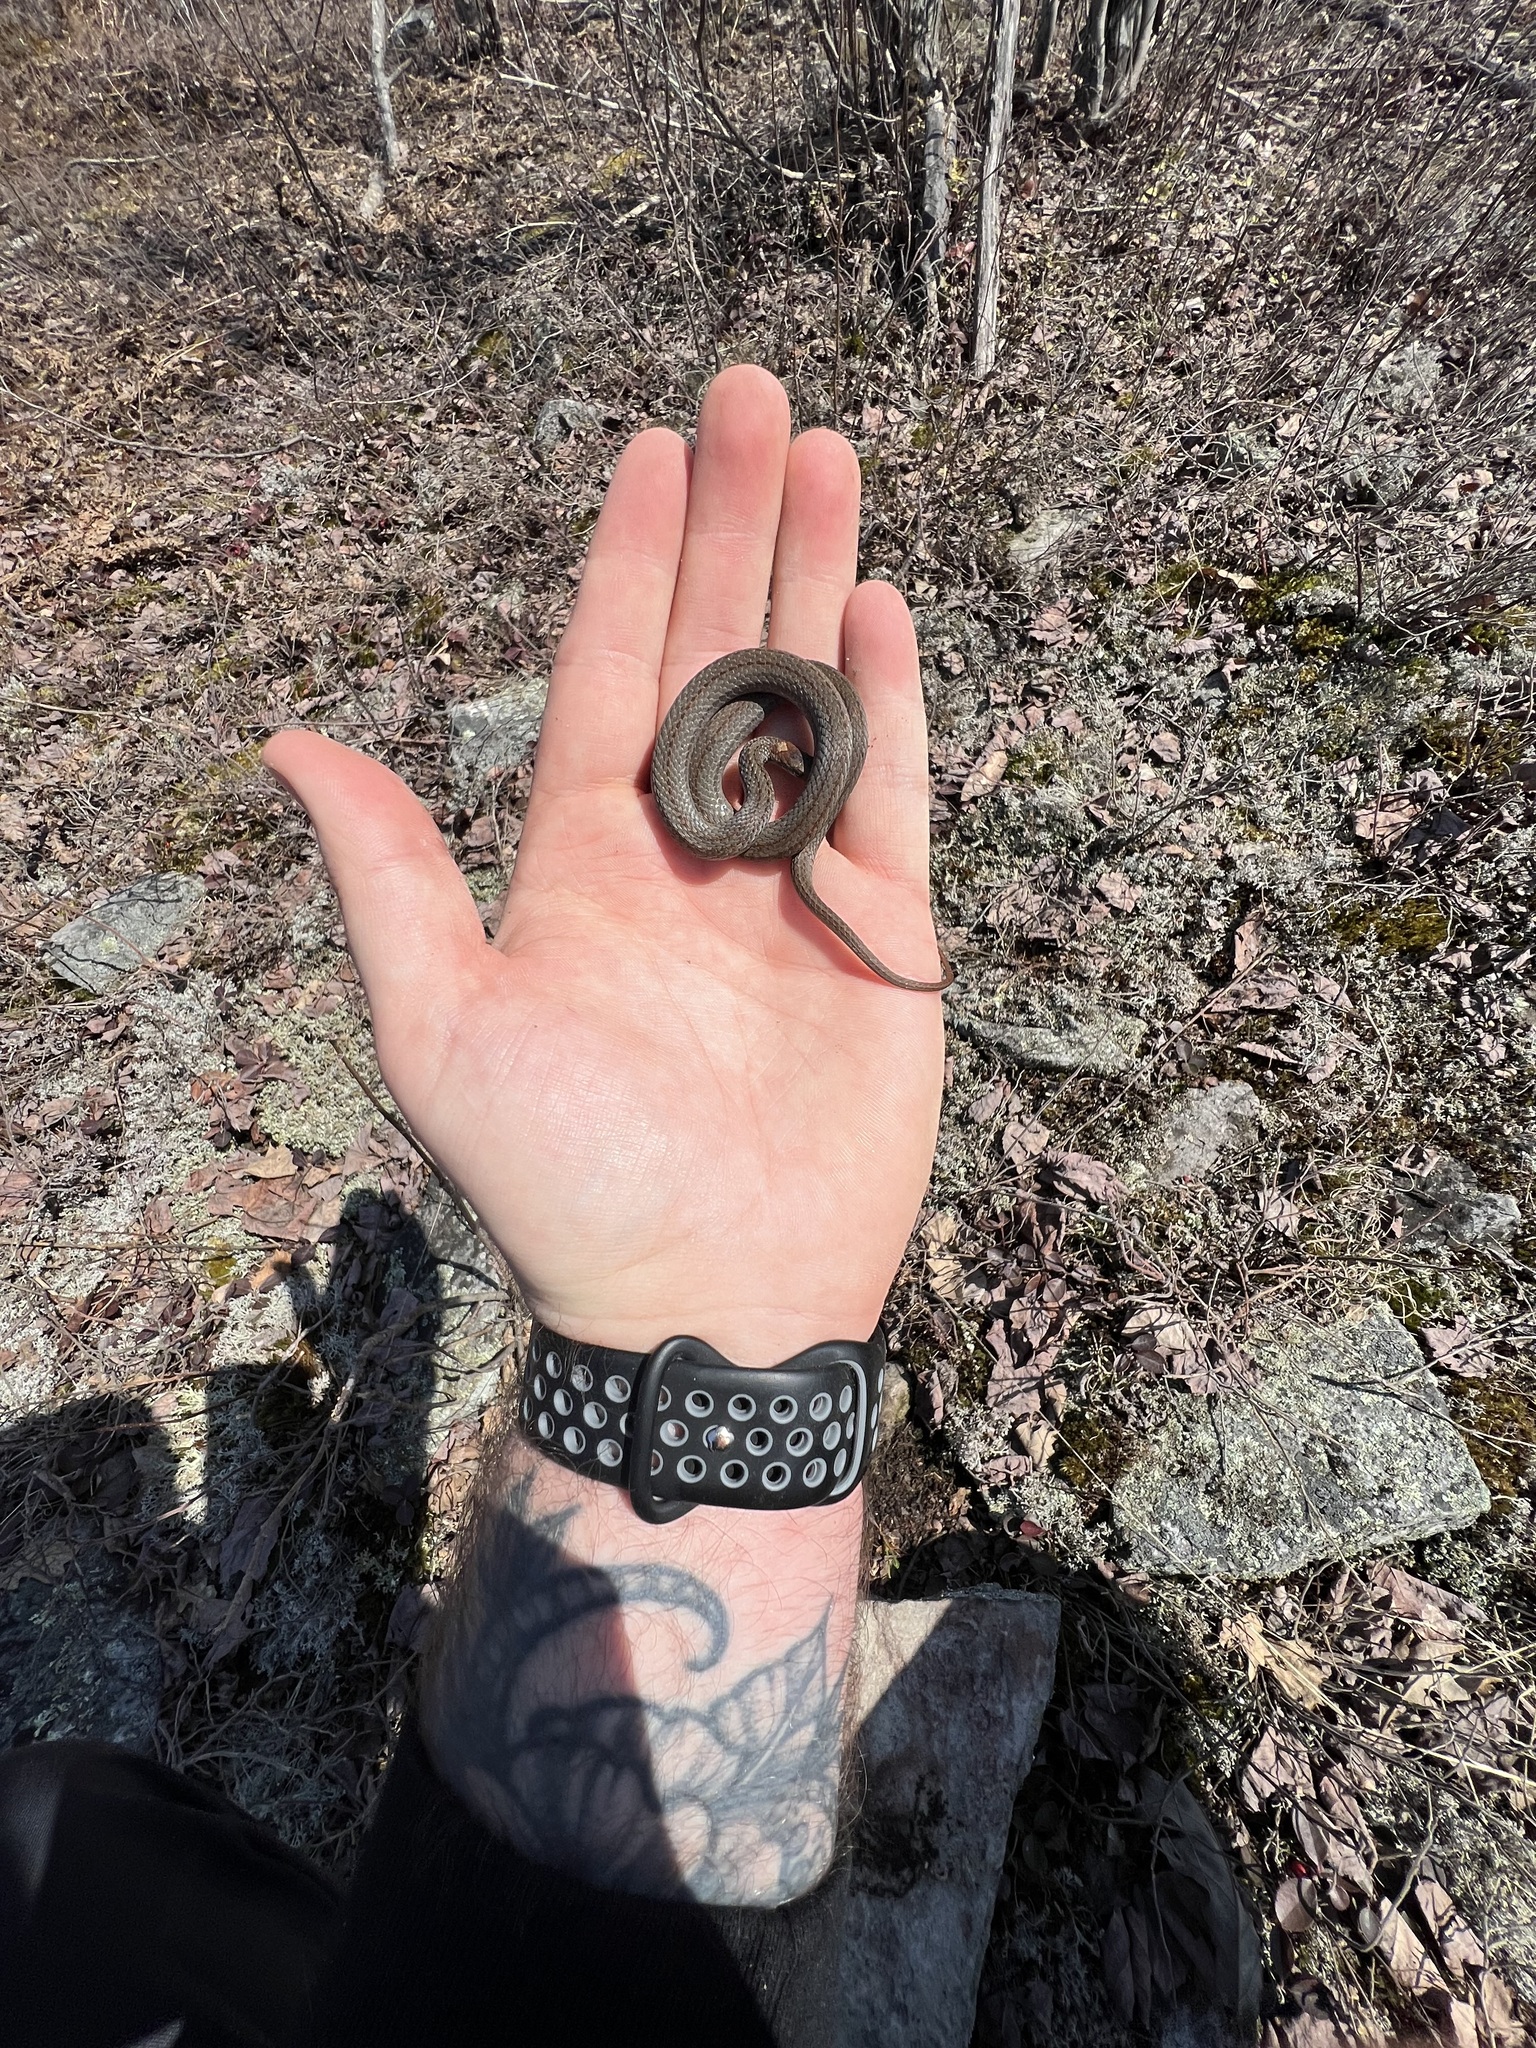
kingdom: Animalia
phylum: Chordata
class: Squamata
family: Colubridae
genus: Storeria
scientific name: Storeria occipitomaculata
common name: Redbelly snake
